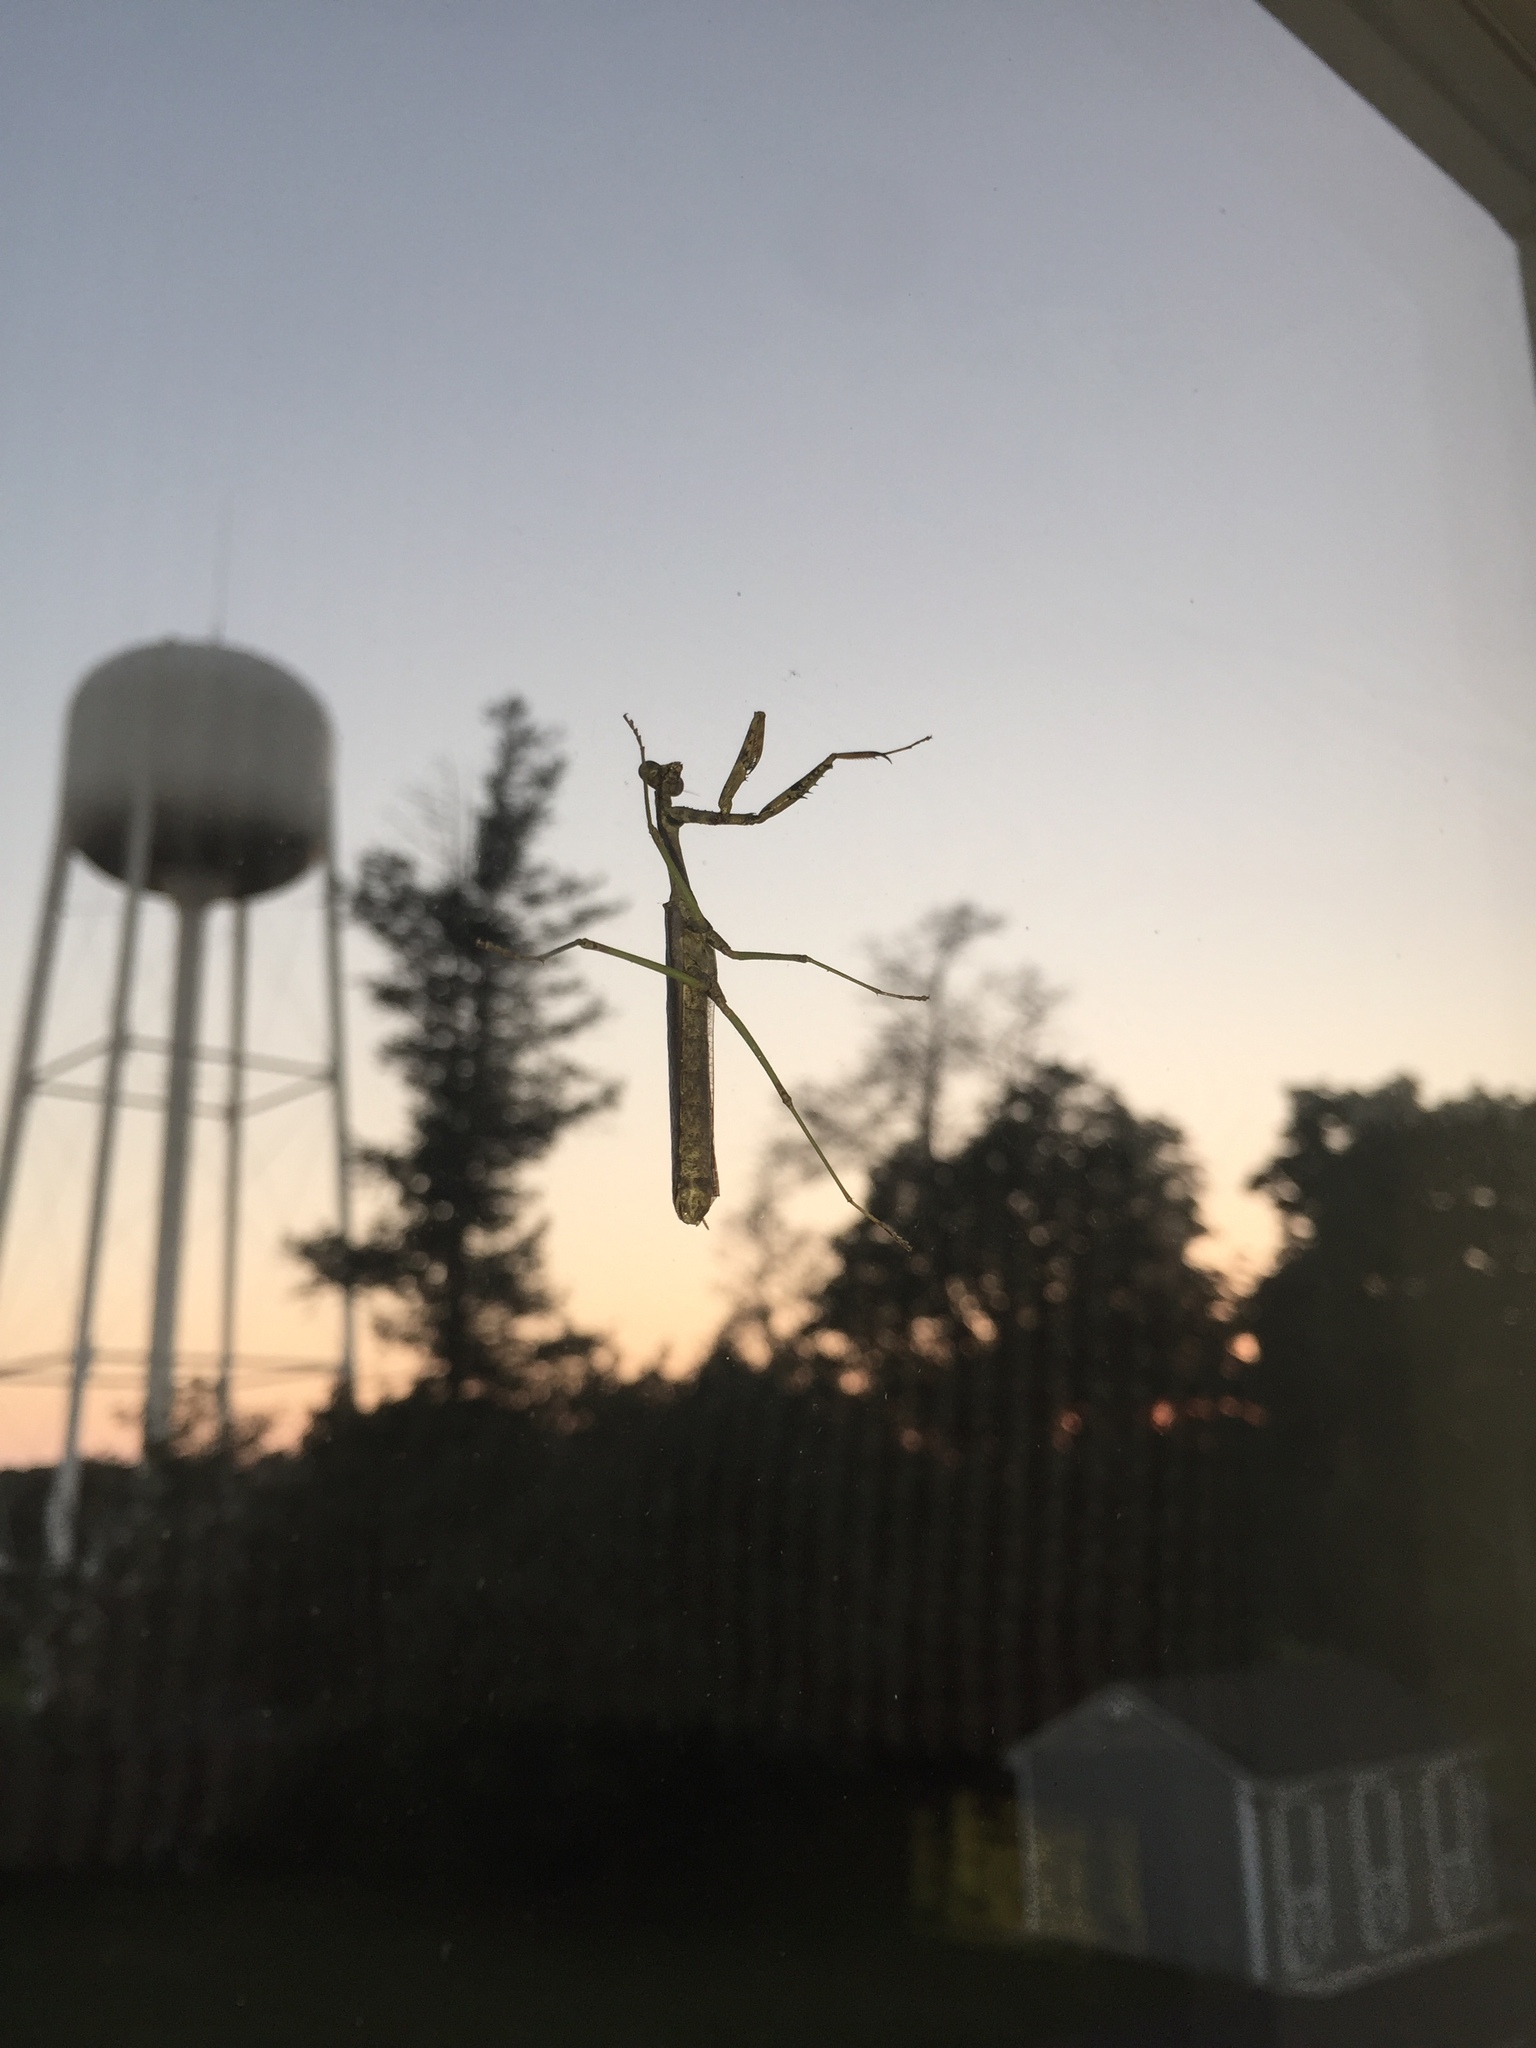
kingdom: Animalia
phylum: Arthropoda
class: Insecta
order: Mantodea
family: Mantidae
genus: Stagmomantis
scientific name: Stagmomantis carolina
